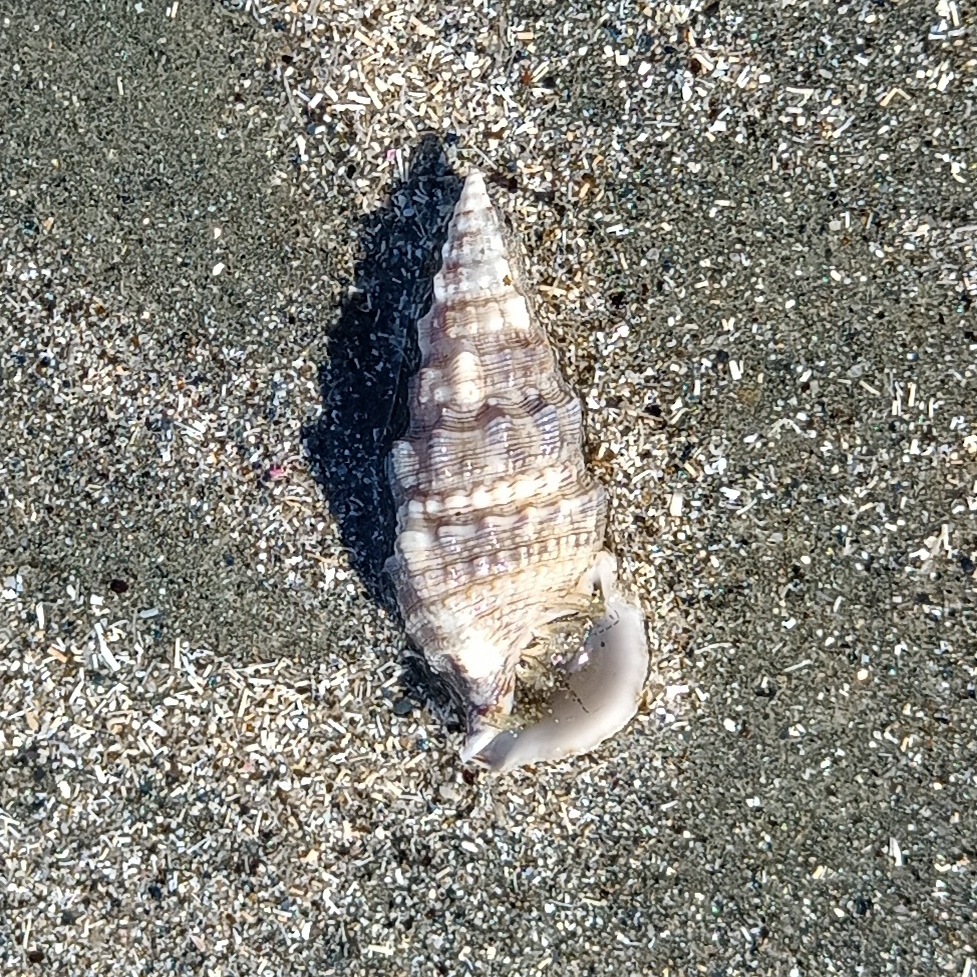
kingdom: Animalia
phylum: Mollusca
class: Gastropoda
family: Cerithiidae
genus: Cerithium
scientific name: Cerithium atratum
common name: Dark cerith
